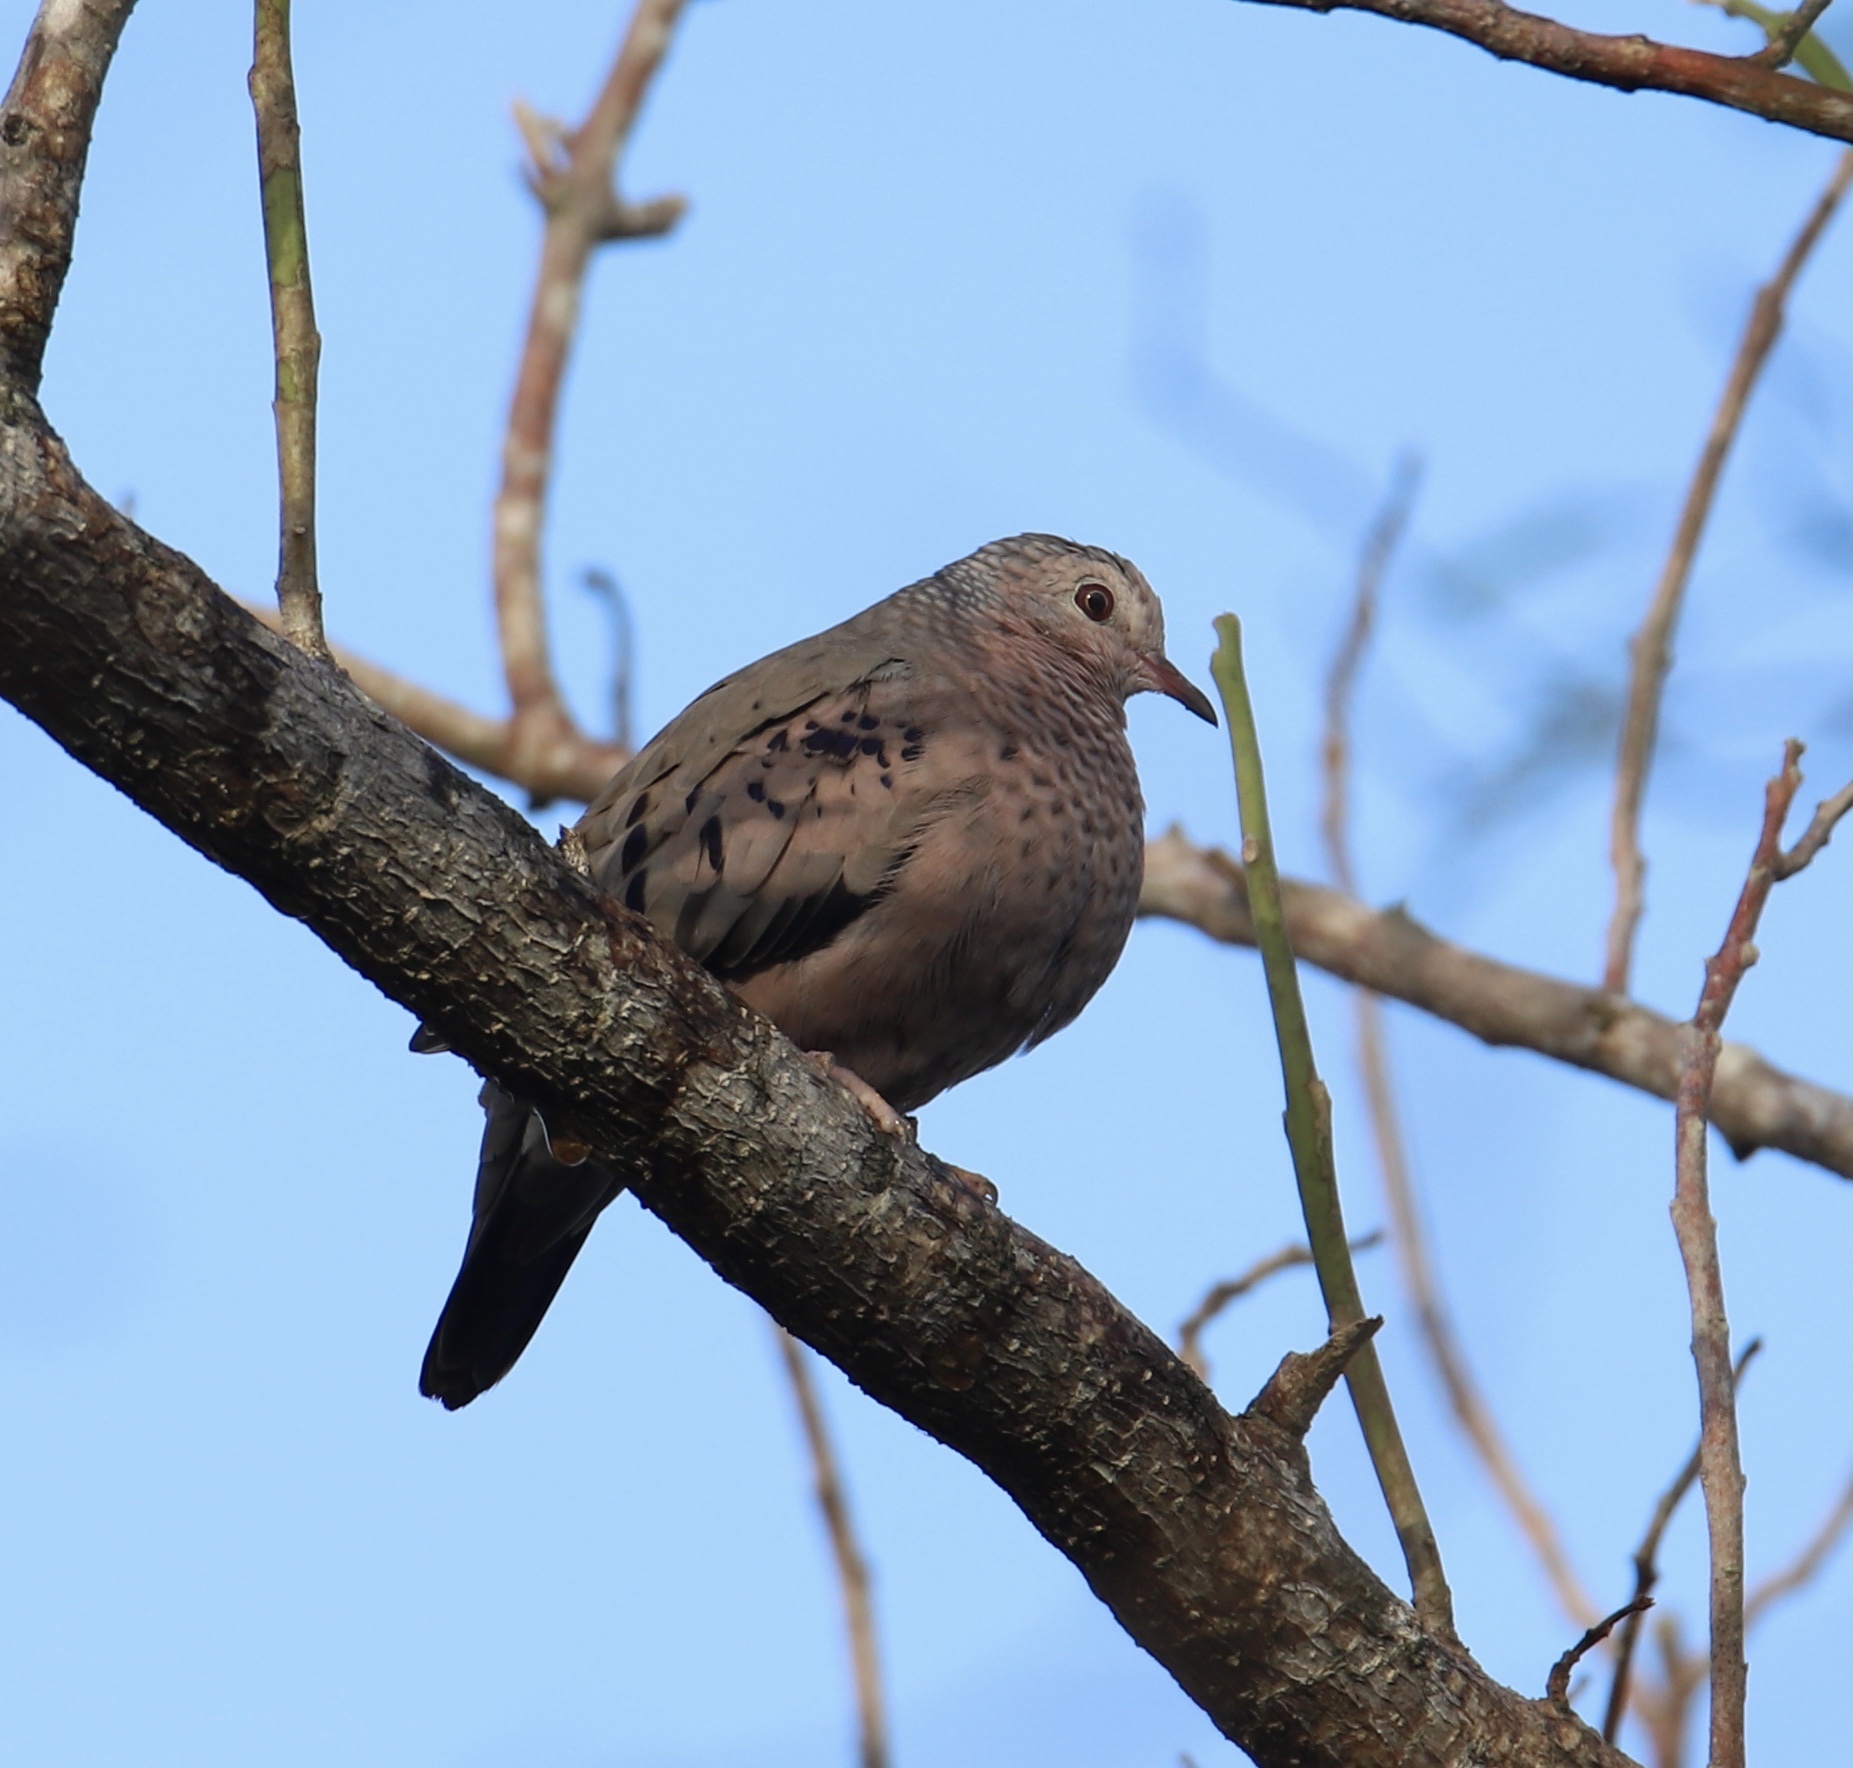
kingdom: Animalia
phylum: Chordata
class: Aves
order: Columbiformes
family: Columbidae
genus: Columbina
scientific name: Columbina passerina
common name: Common ground-dove
